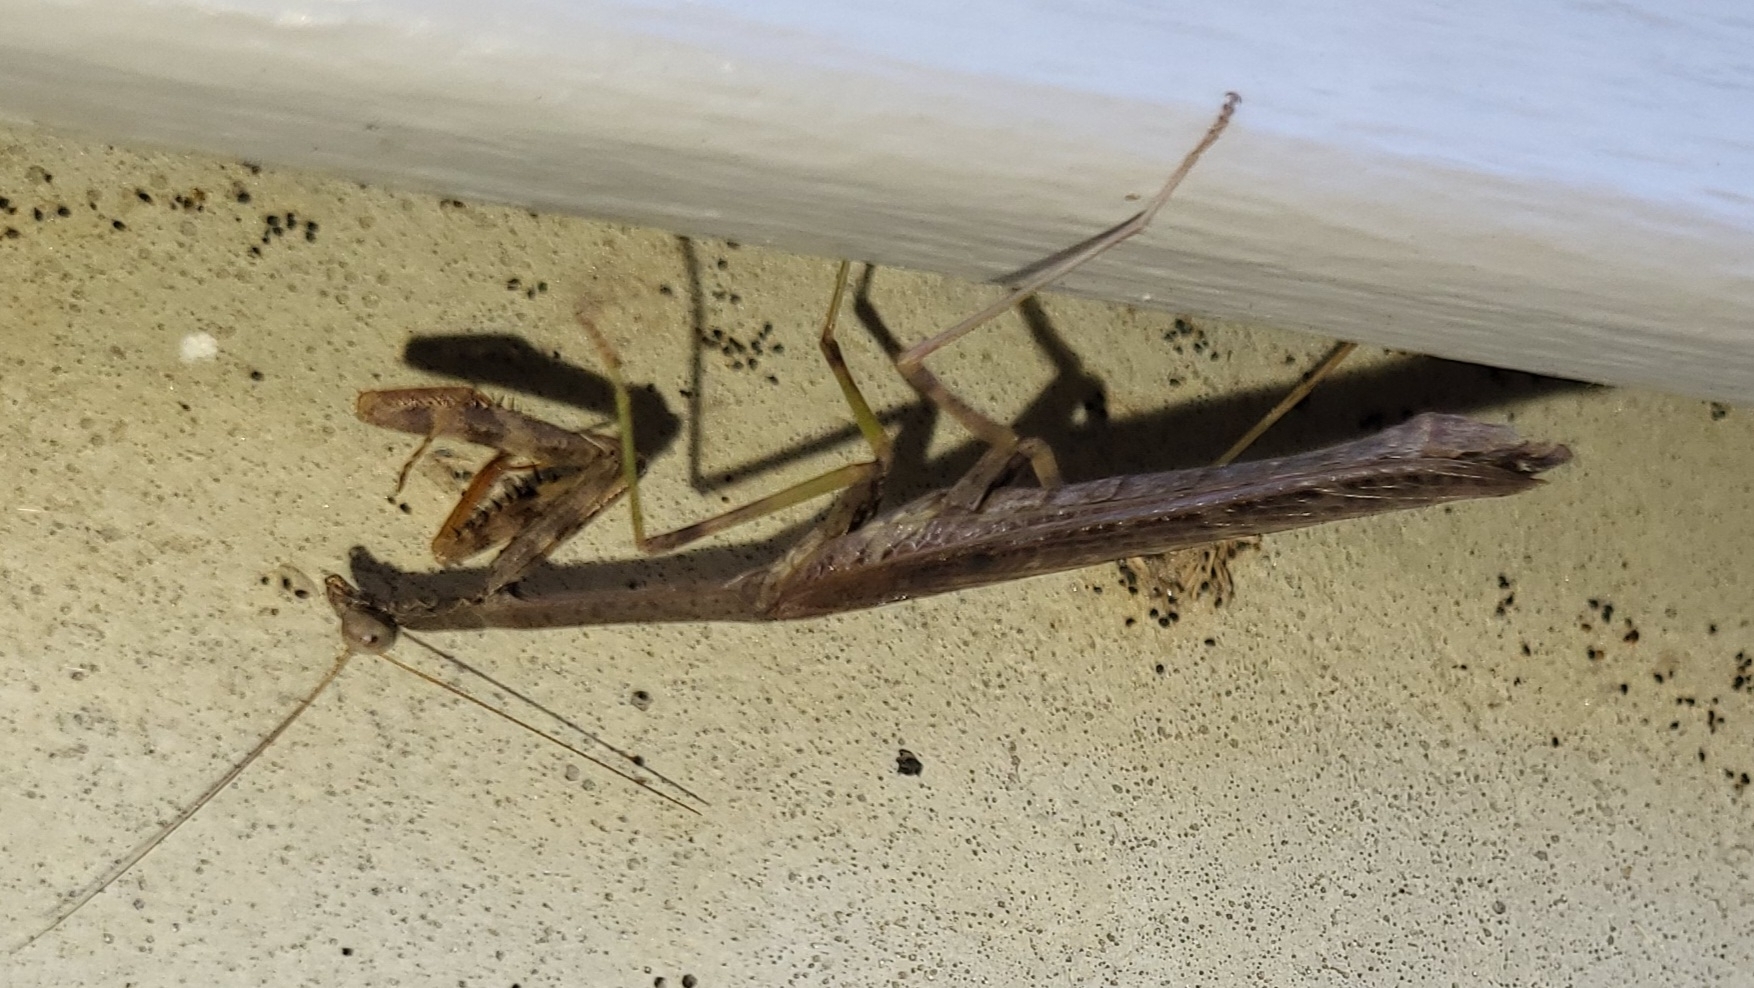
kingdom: Animalia
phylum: Arthropoda
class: Insecta
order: Mantodea
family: Mantidae
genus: Stagmomantis
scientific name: Stagmomantis carolina
